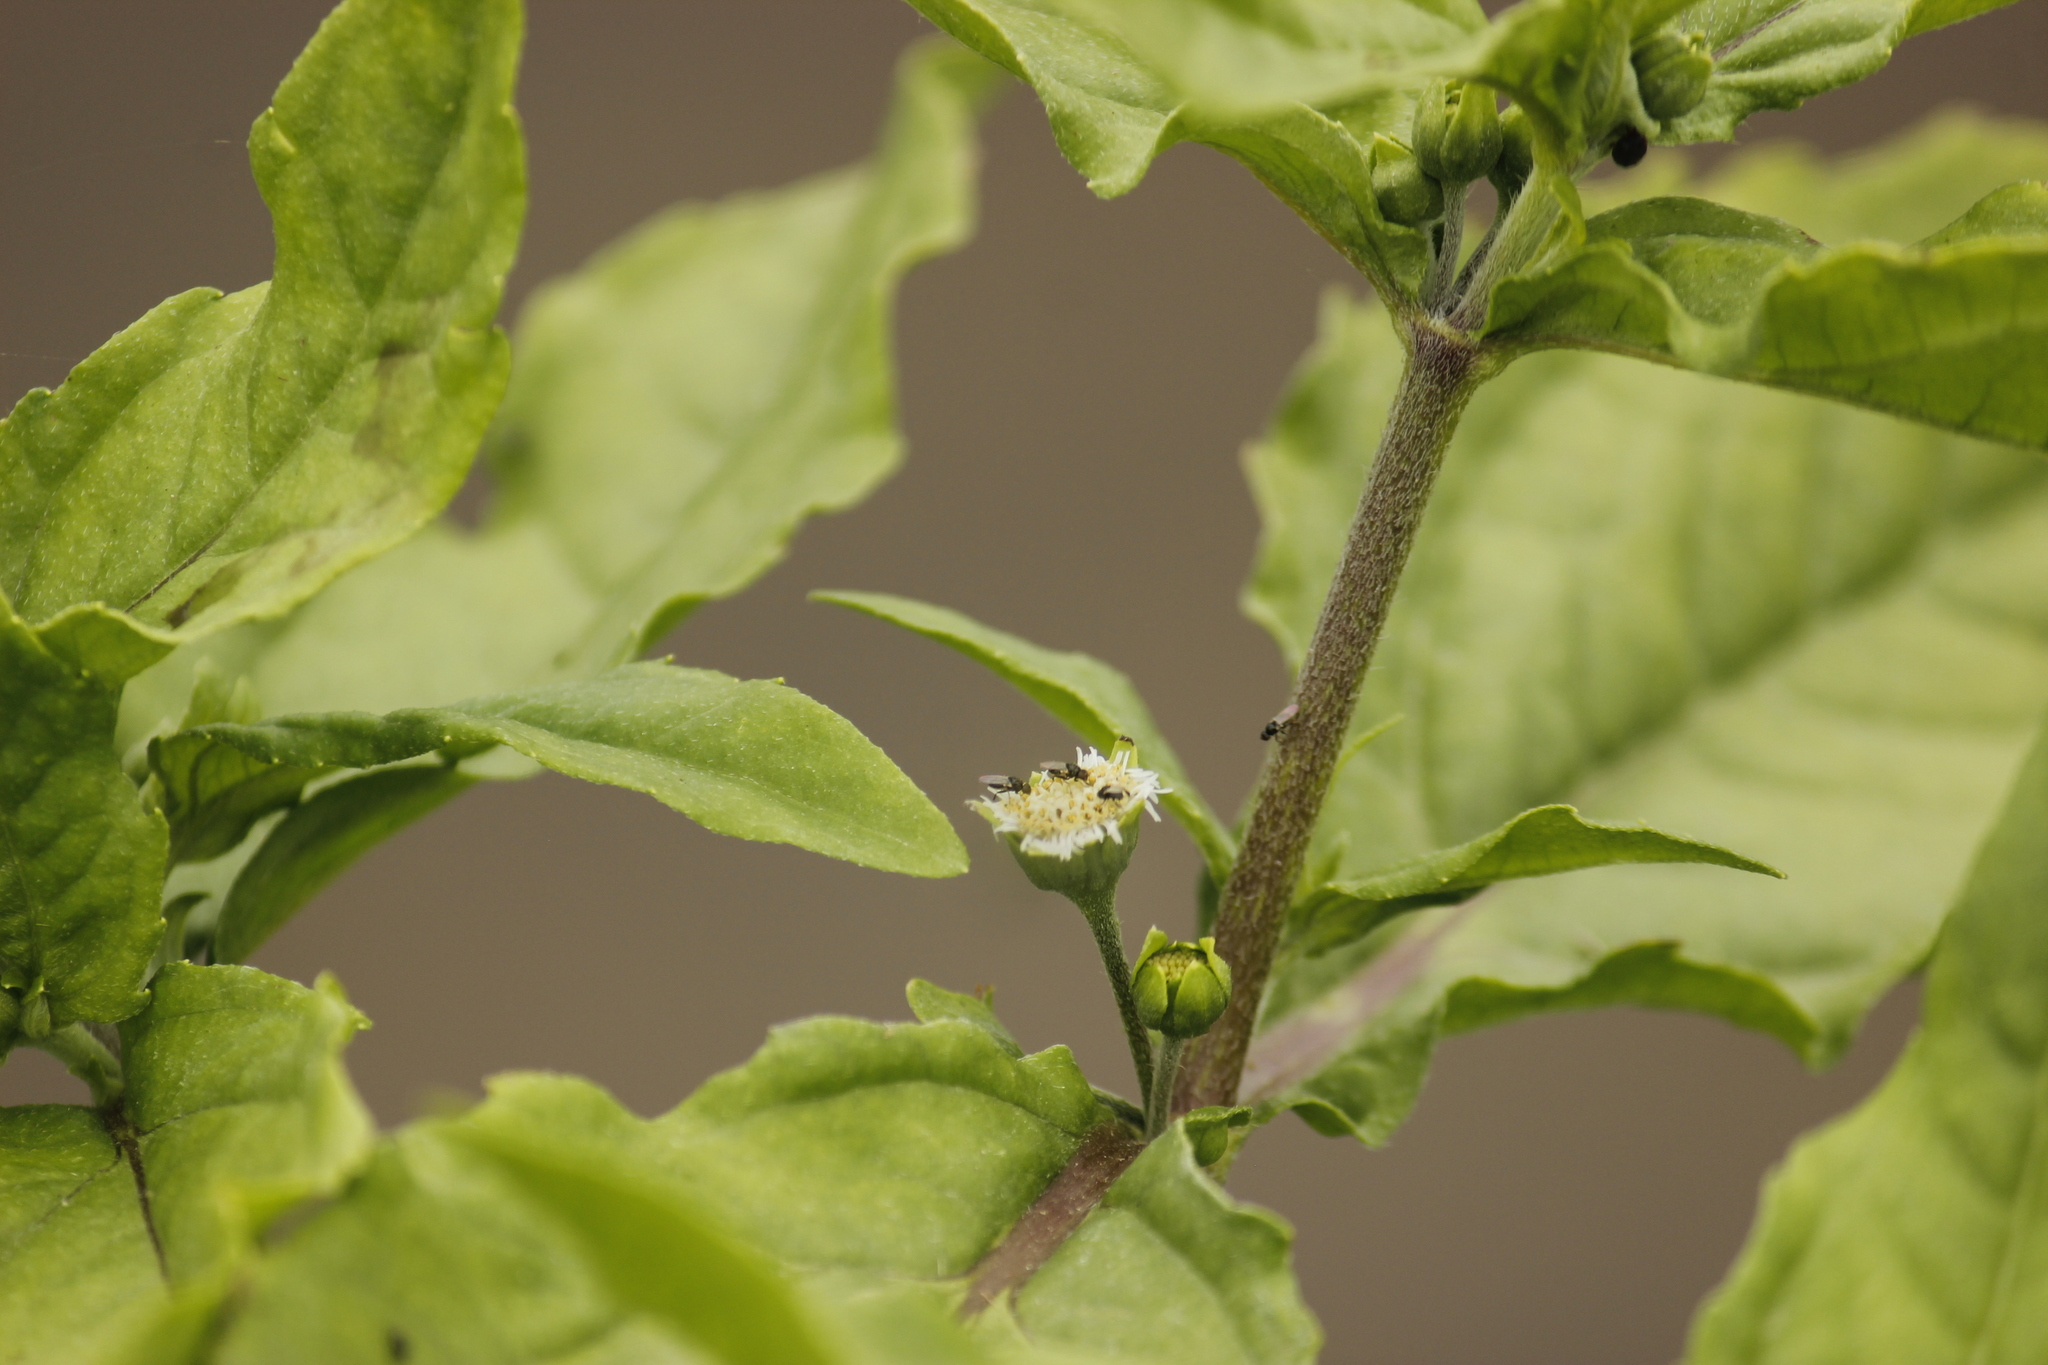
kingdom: Plantae
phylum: Tracheophyta
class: Magnoliopsida
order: Asterales
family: Asteraceae
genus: Eclipta
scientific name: Eclipta prostrata
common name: False daisy
